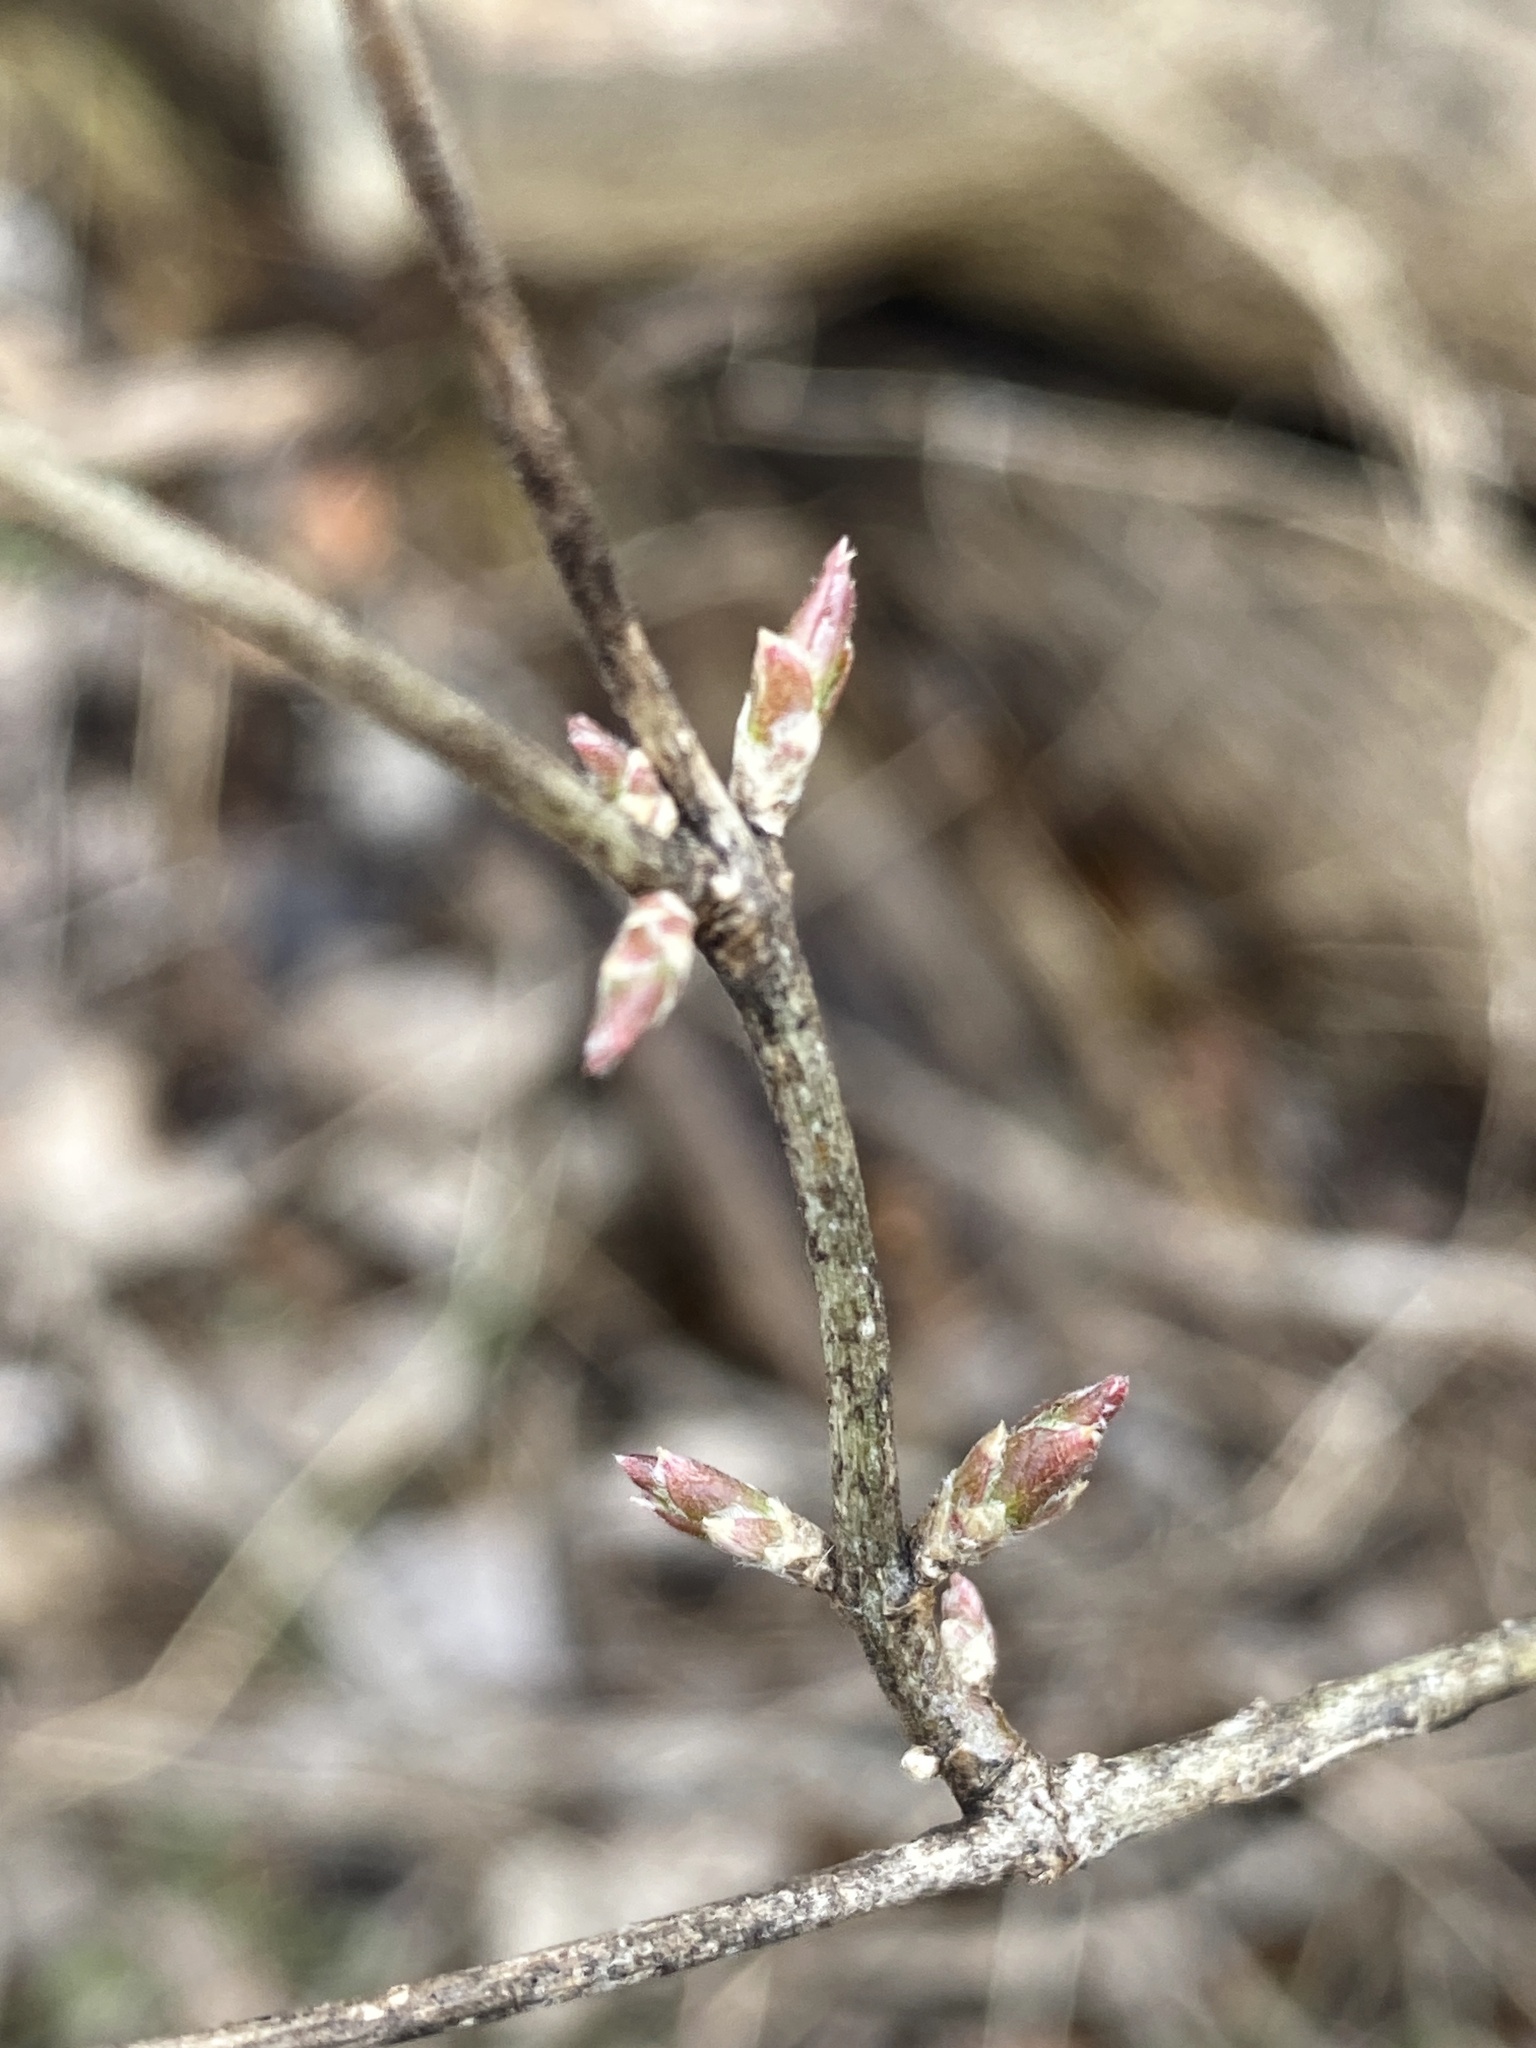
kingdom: Plantae
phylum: Tracheophyta
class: Magnoliopsida
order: Dipsacales
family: Caprifoliaceae
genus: Lonicera
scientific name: Lonicera maackii
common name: Amur honeysuckle
